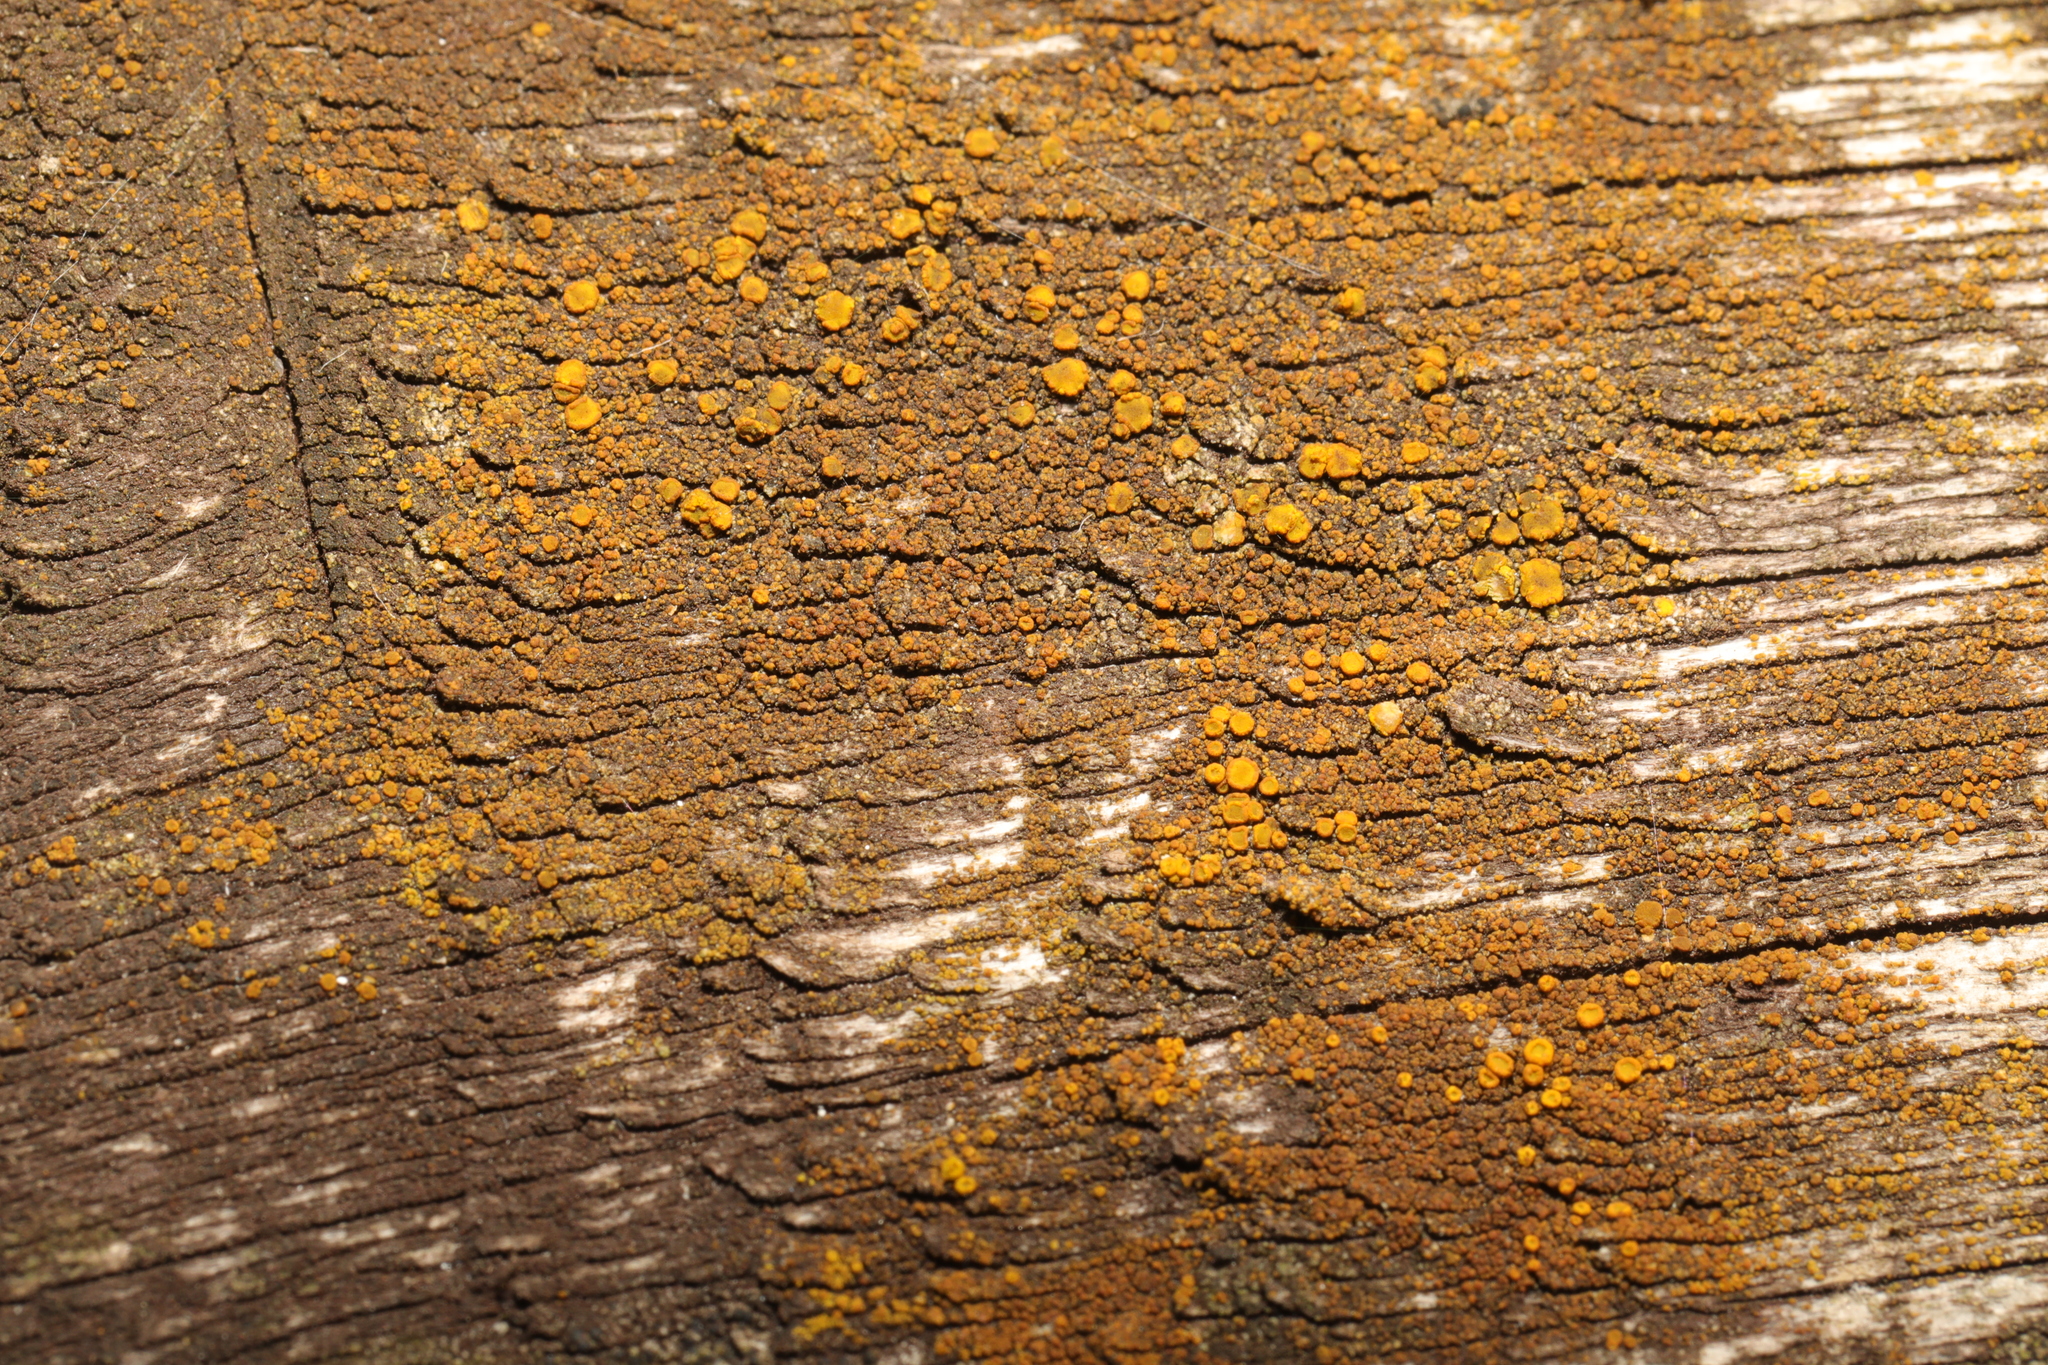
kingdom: Fungi
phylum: Ascomycota
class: Candelariomycetes
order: Candelariales
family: Candelariaceae
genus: Candelariella
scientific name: Candelariella vitellina
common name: Common goldspeck
